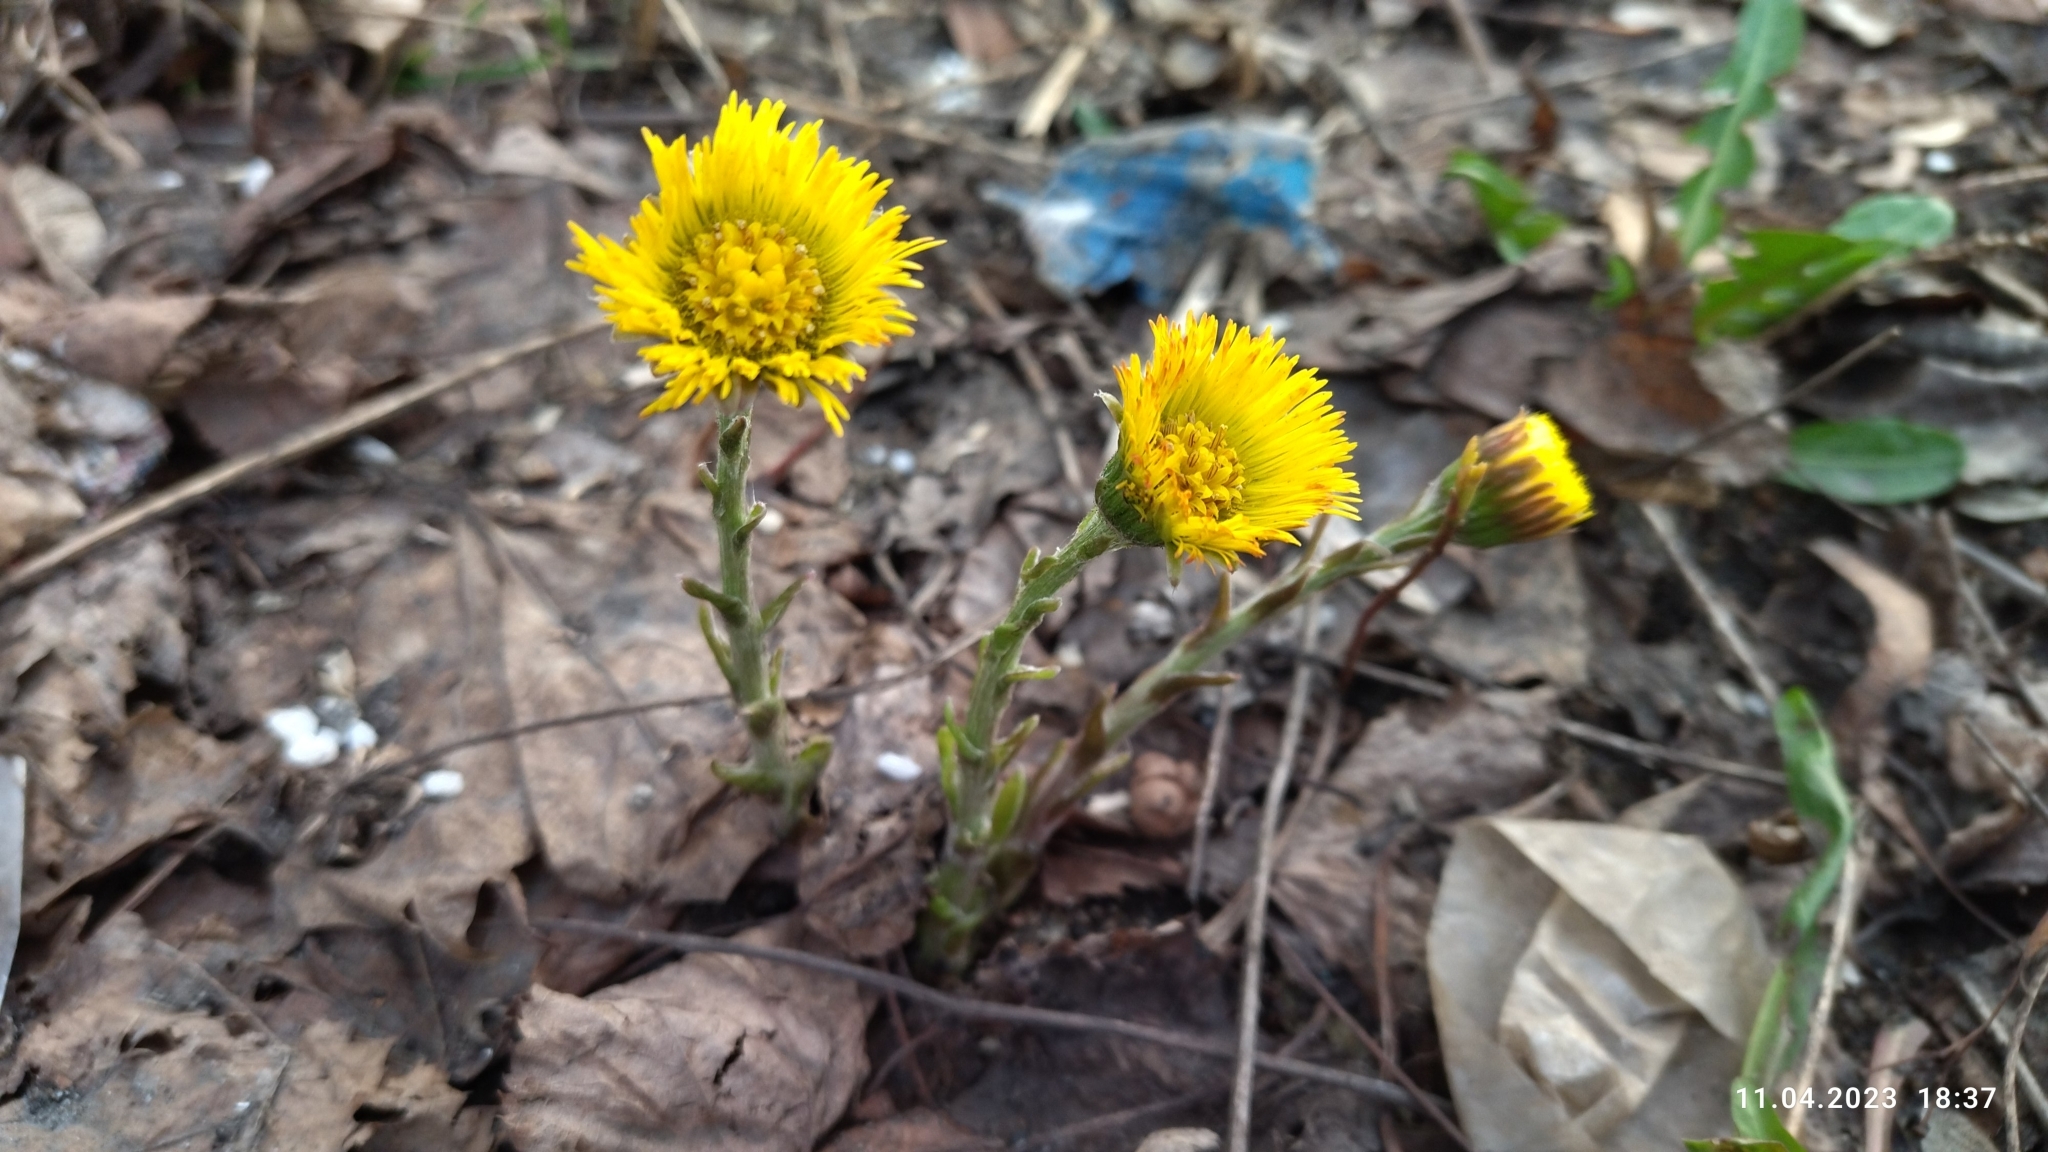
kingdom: Plantae
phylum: Tracheophyta
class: Magnoliopsida
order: Asterales
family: Asteraceae
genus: Tussilago
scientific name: Tussilago farfara
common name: Coltsfoot
